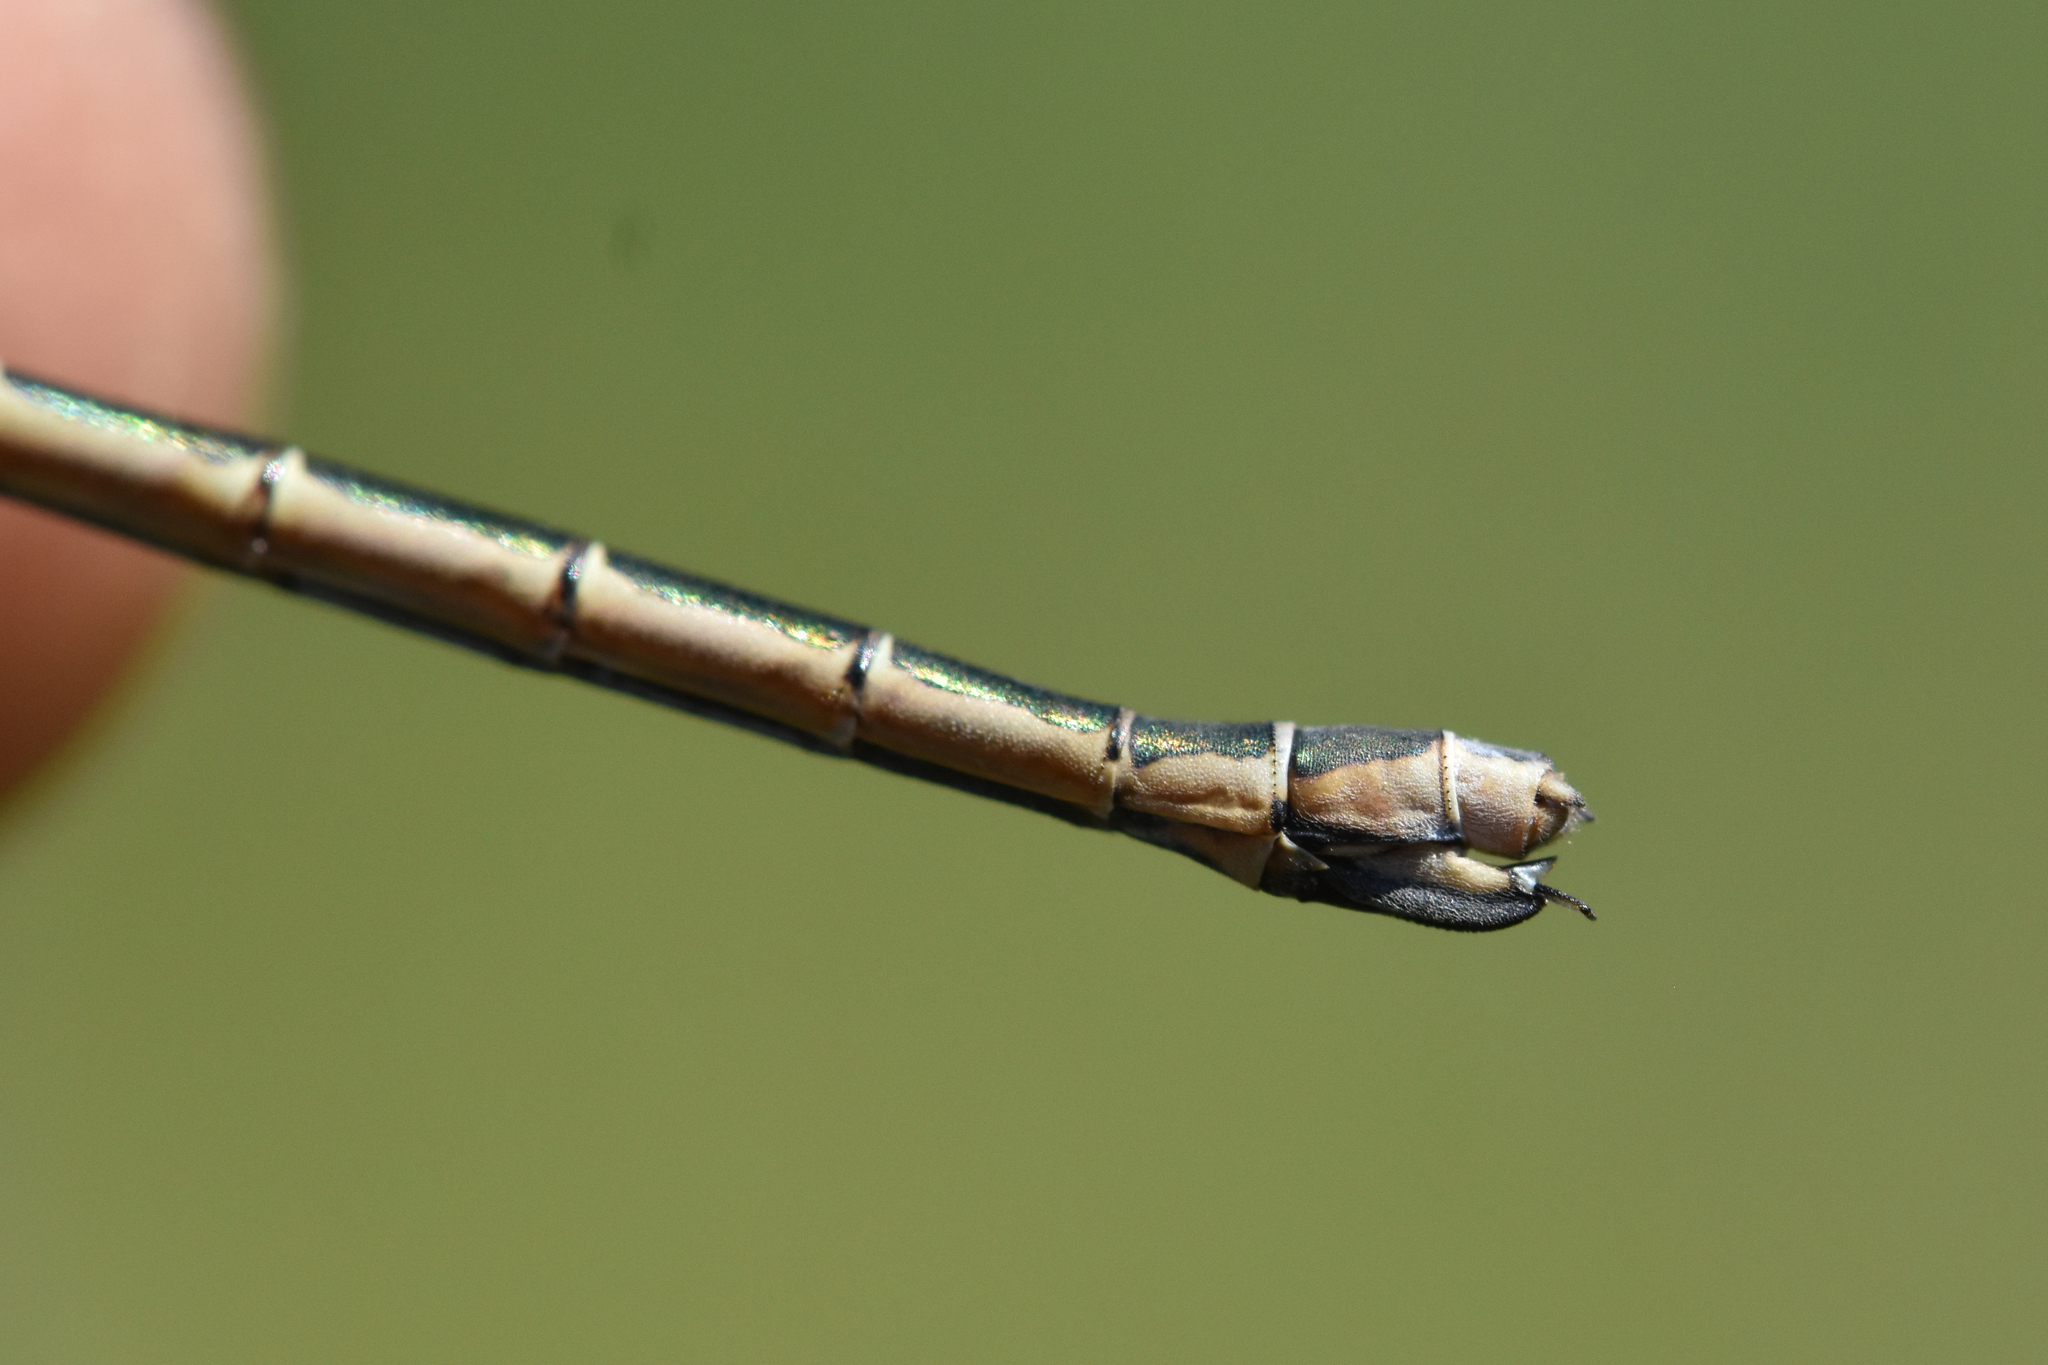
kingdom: Animalia
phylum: Arthropoda
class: Insecta
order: Odonata
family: Lestidae
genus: Lestes
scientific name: Lestes dryas
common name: Scarce emerald damselfly
